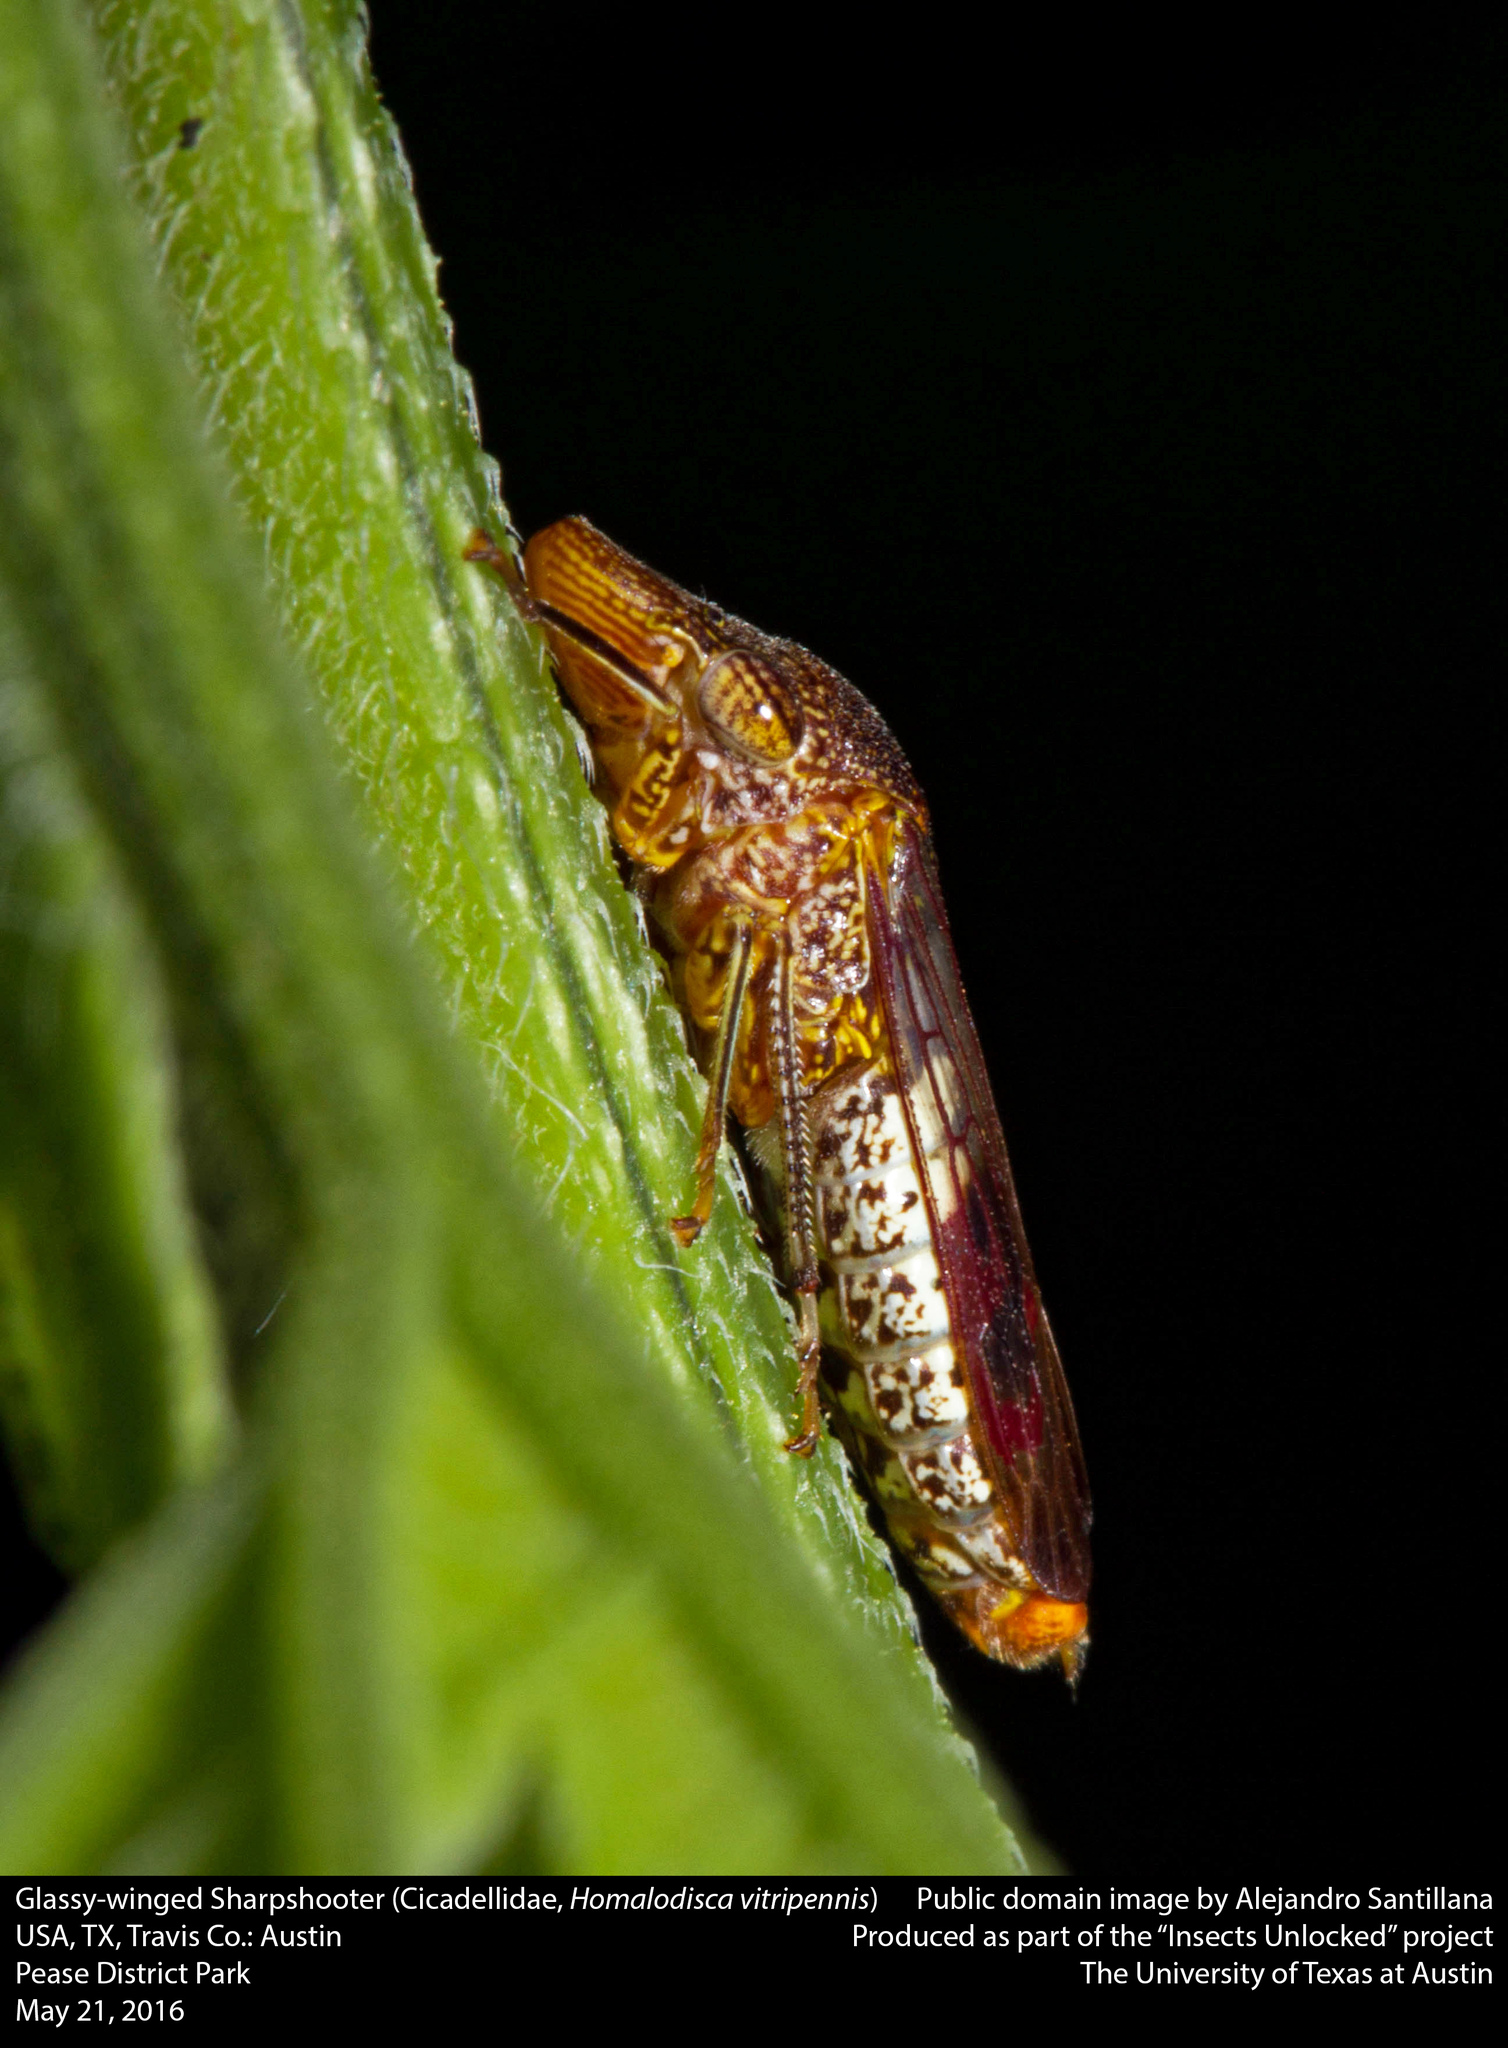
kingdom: Animalia
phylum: Arthropoda
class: Insecta
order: Hemiptera
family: Cicadellidae
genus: Homalodisca
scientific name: Homalodisca vitripennis
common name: Glassy-winged sharpshooter
